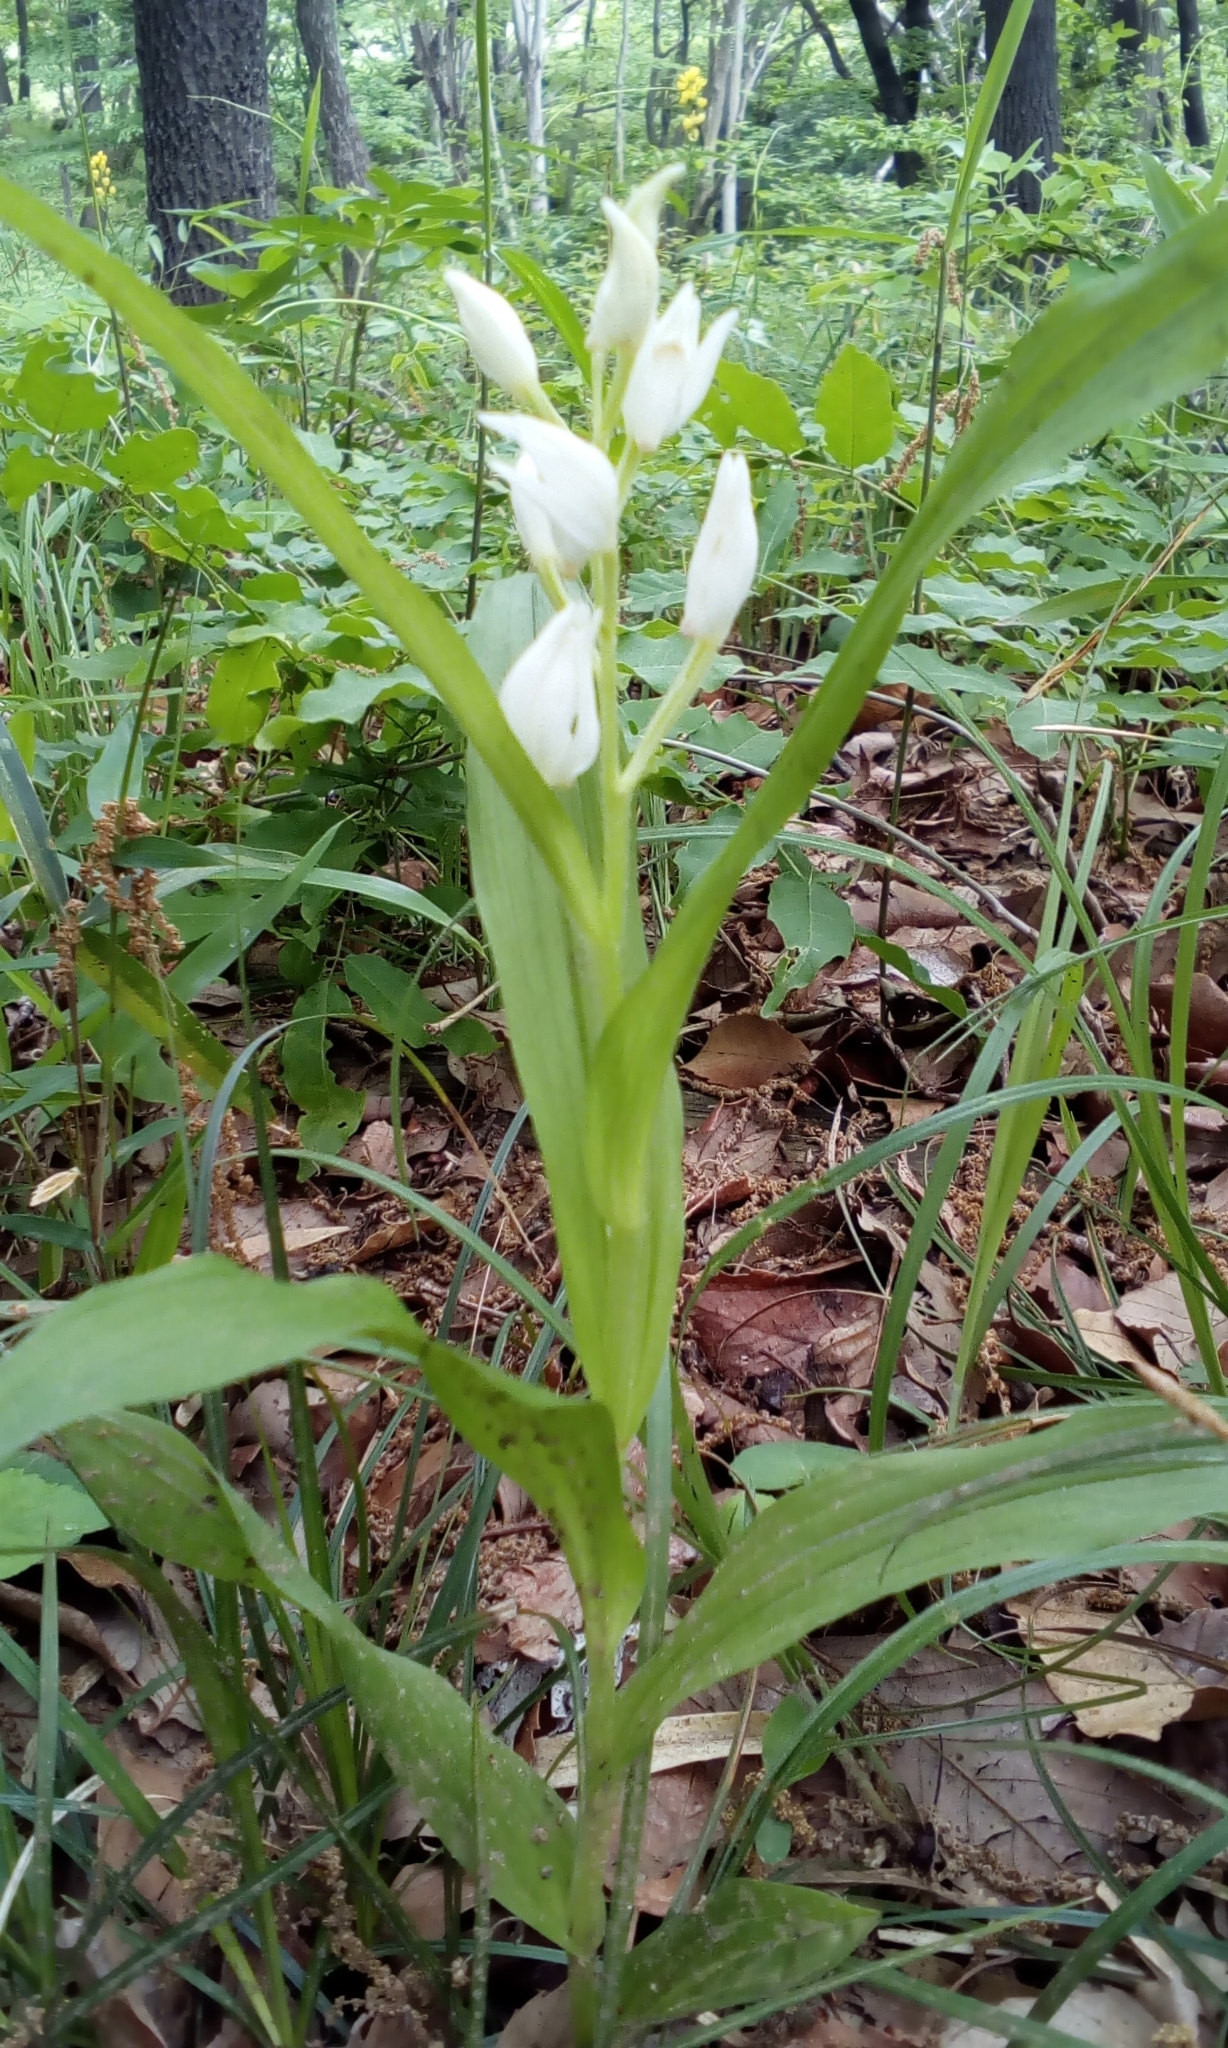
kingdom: Plantae
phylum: Tracheophyta
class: Liliopsida
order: Asparagales
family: Orchidaceae
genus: Cephalanthera
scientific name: Cephalanthera longibracteata
